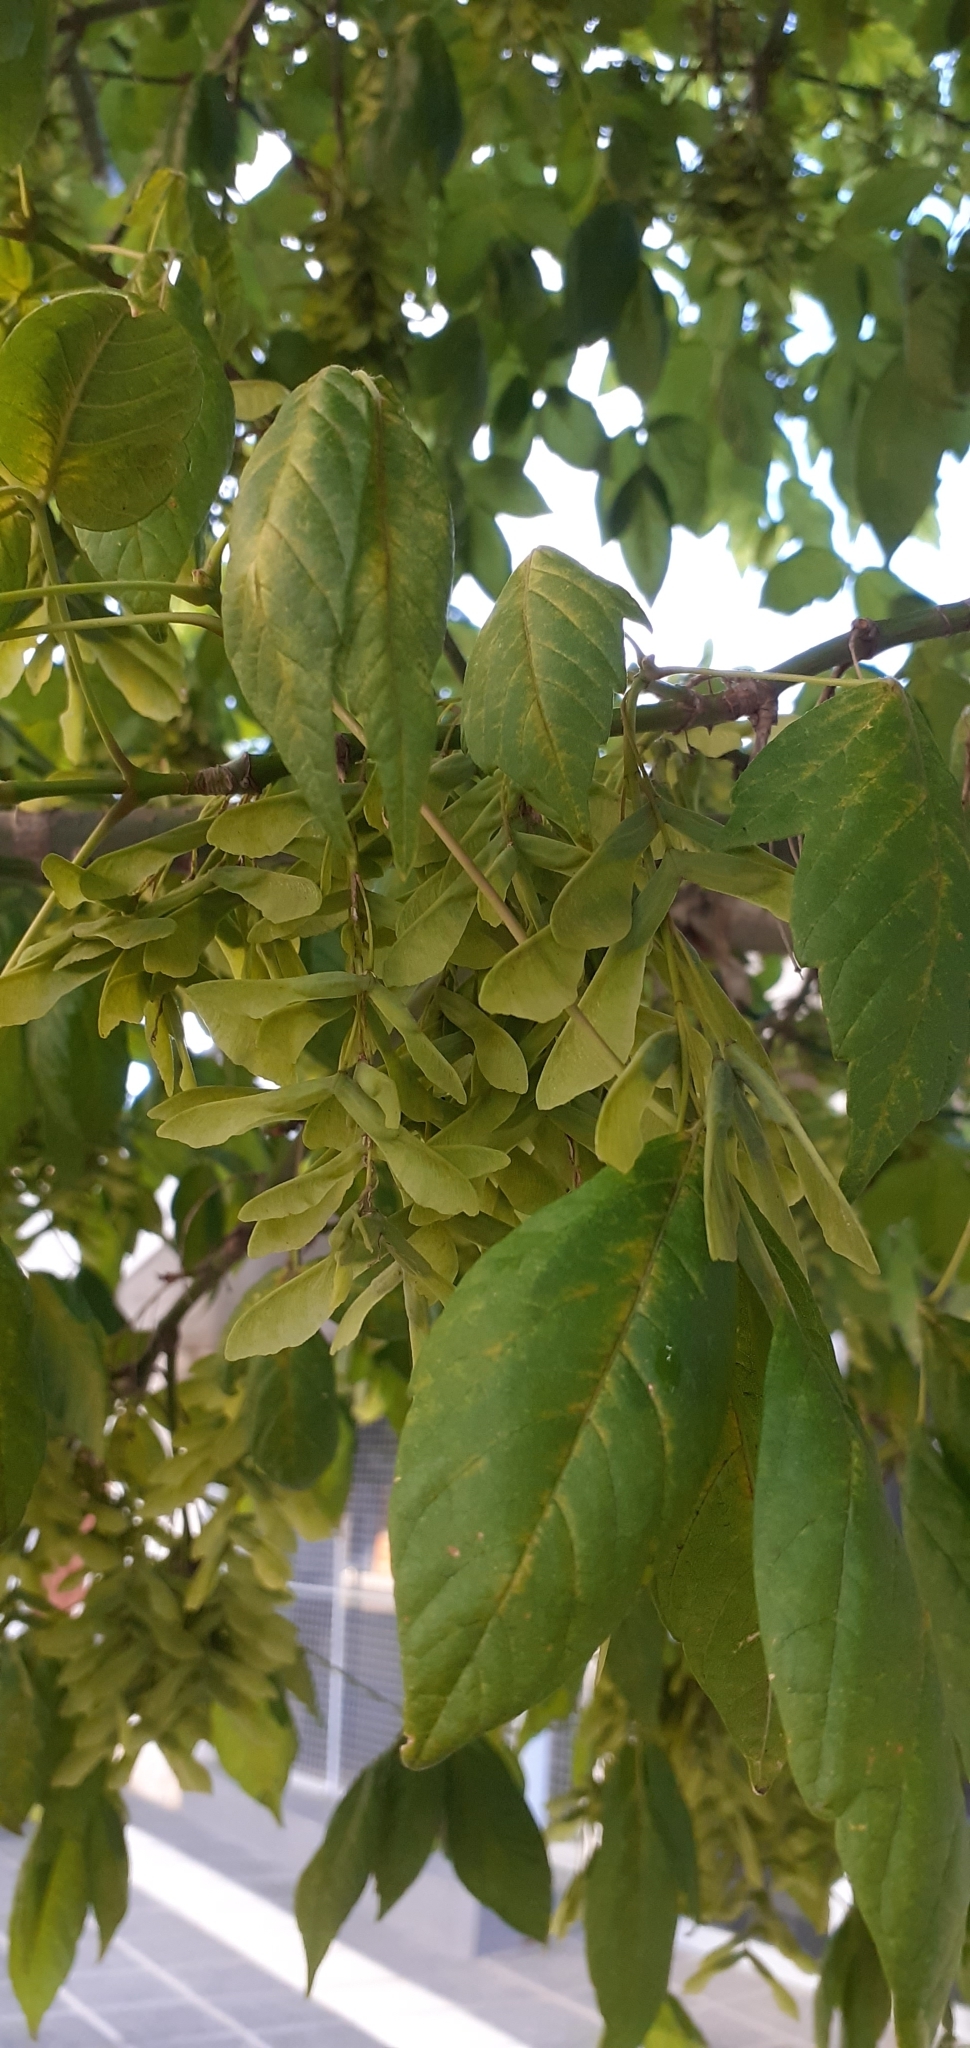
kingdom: Plantae
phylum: Tracheophyta
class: Magnoliopsida
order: Sapindales
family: Sapindaceae
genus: Acer
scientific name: Acer negundo
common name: Ashleaf maple
